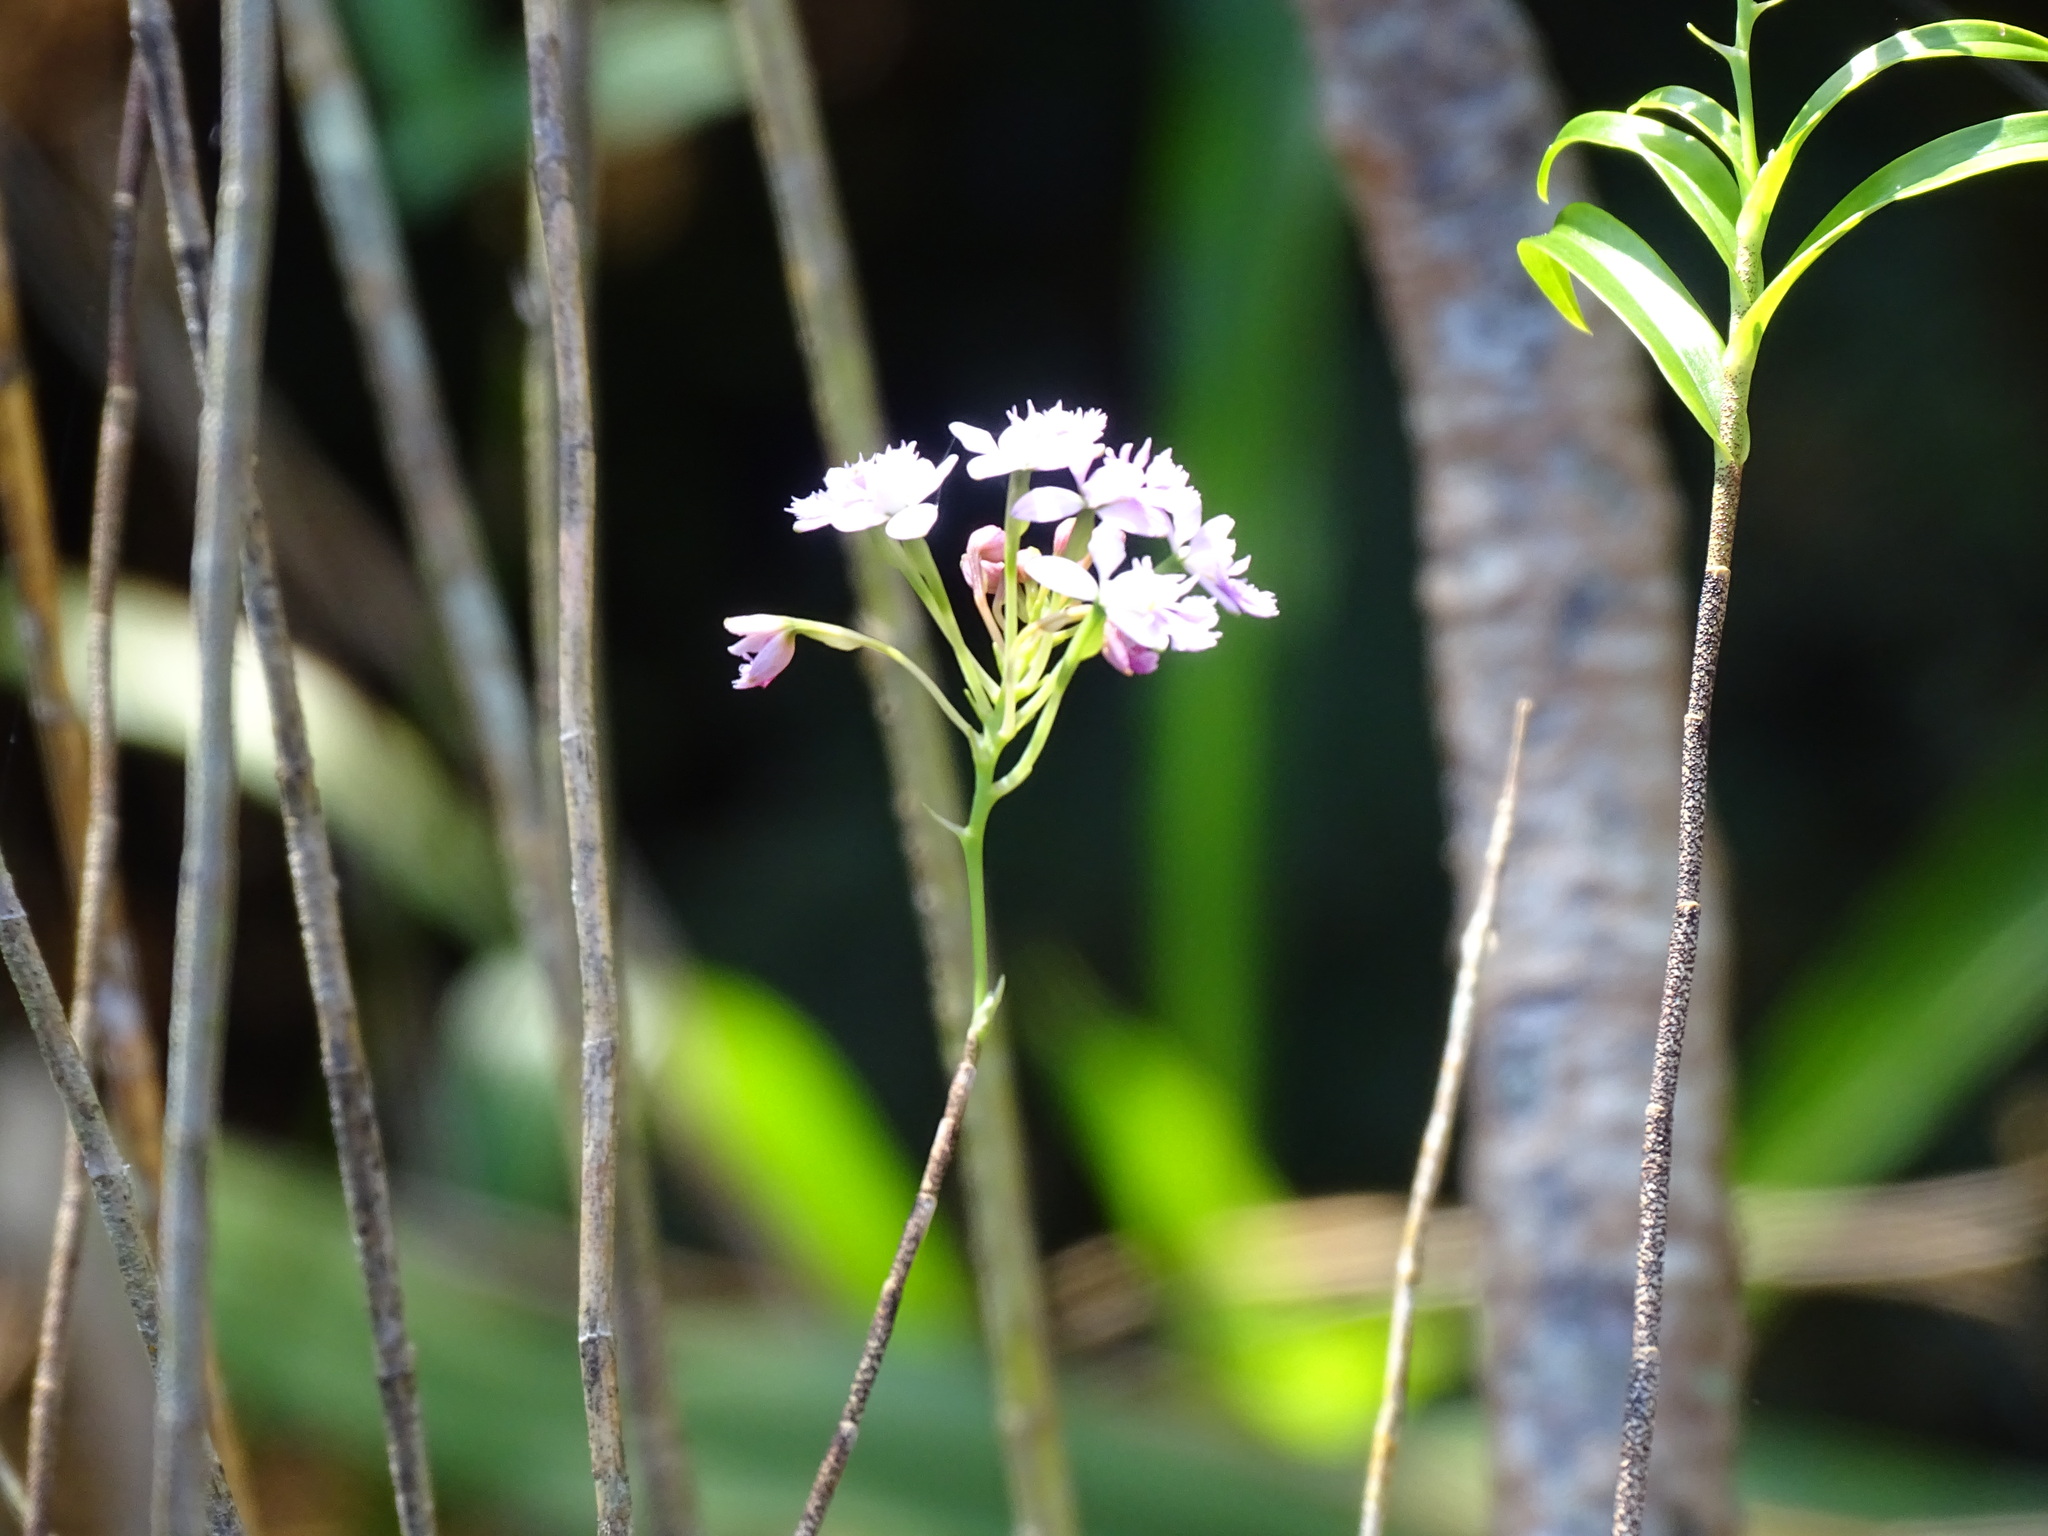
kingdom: Plantae
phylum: Tracheophyta
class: Liliopsida
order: Asparagales
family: Orchidaceae
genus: Epidendrum
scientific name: Epidendrum caligarium
